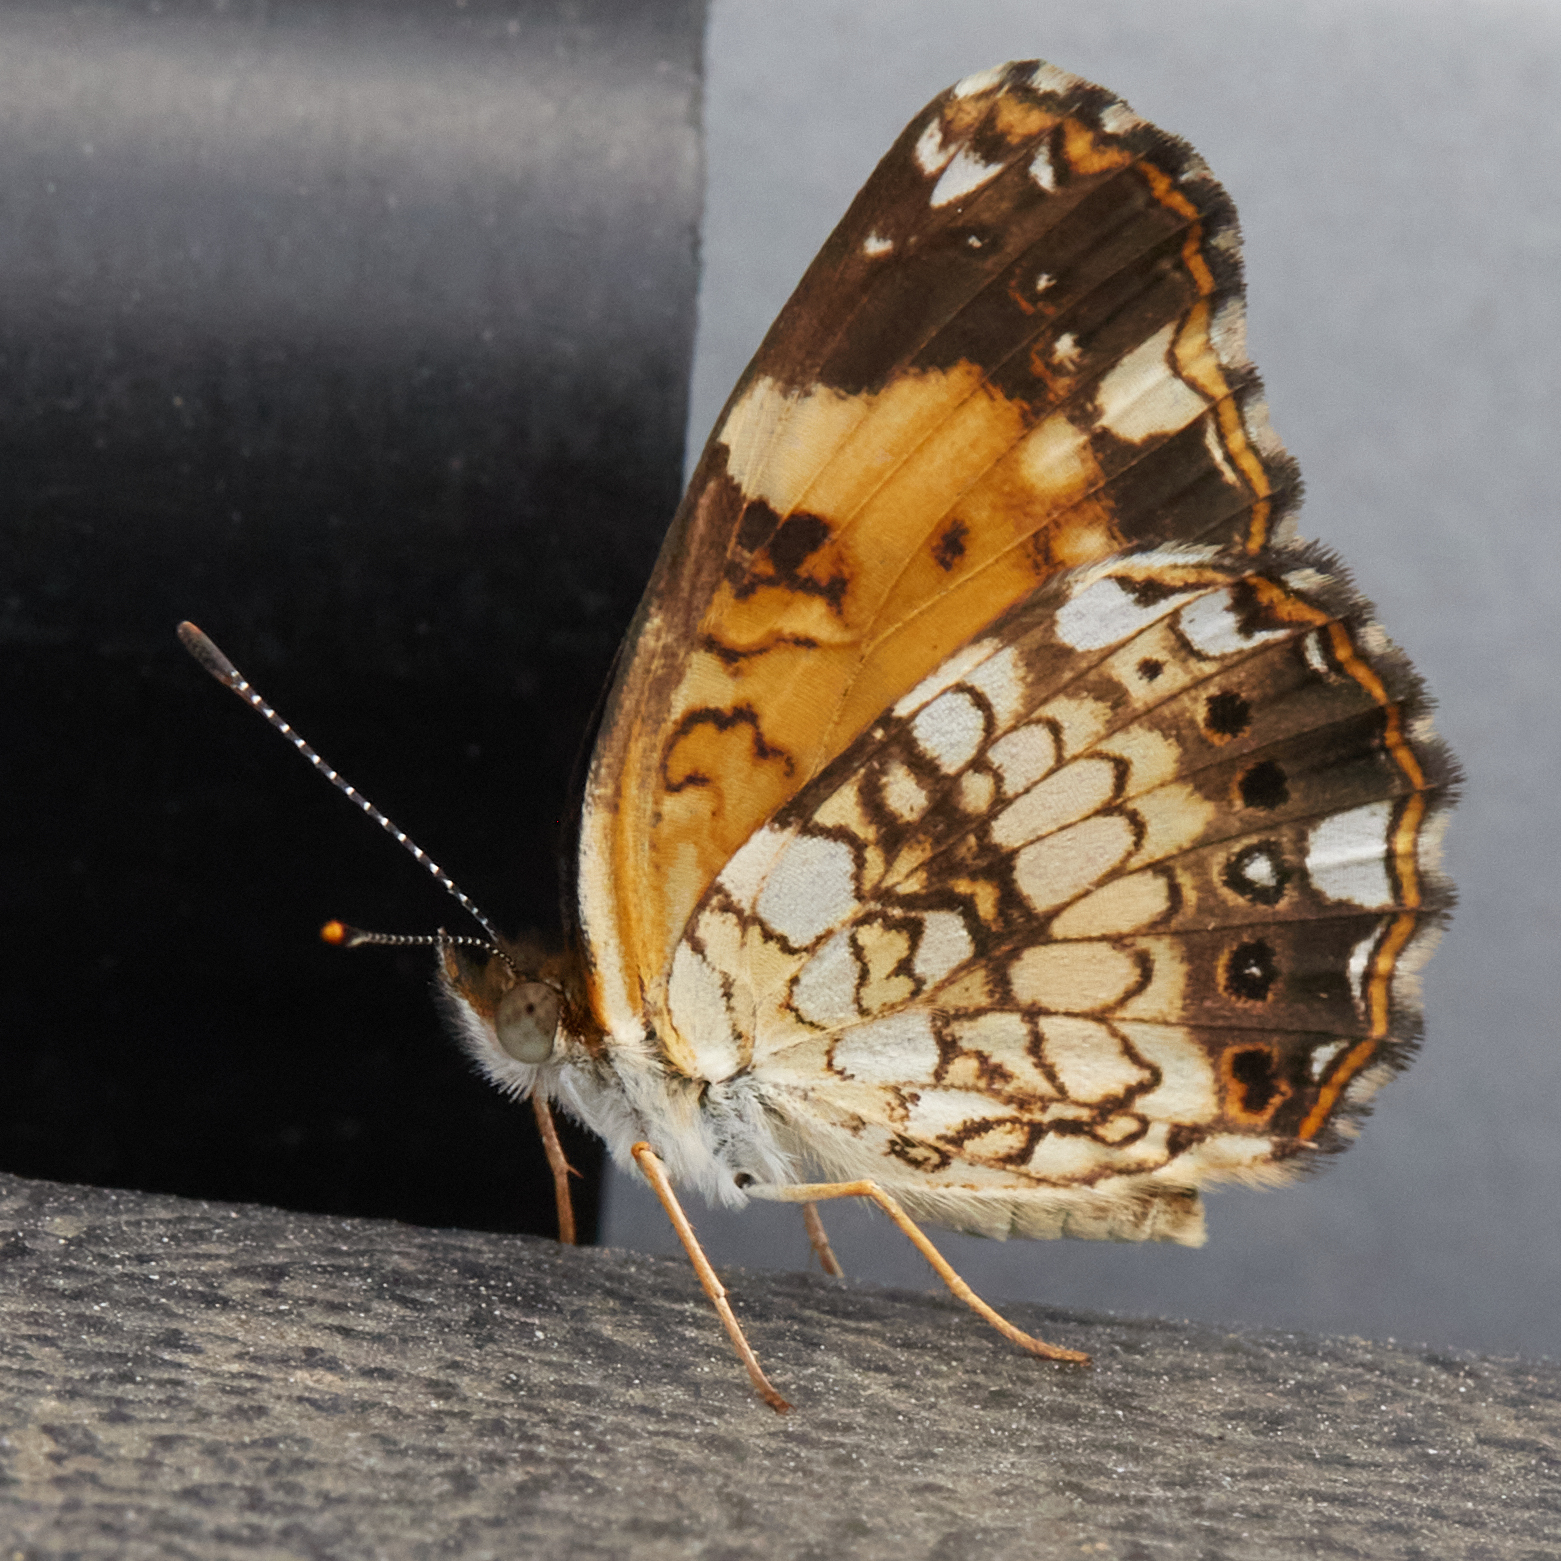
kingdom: Animalia
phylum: Arthropoda
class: Insecta
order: Lepidoptera
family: Nymphalidae
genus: Chlosyne
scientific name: Chlosyne nycteis
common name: Silvery checkerspot
